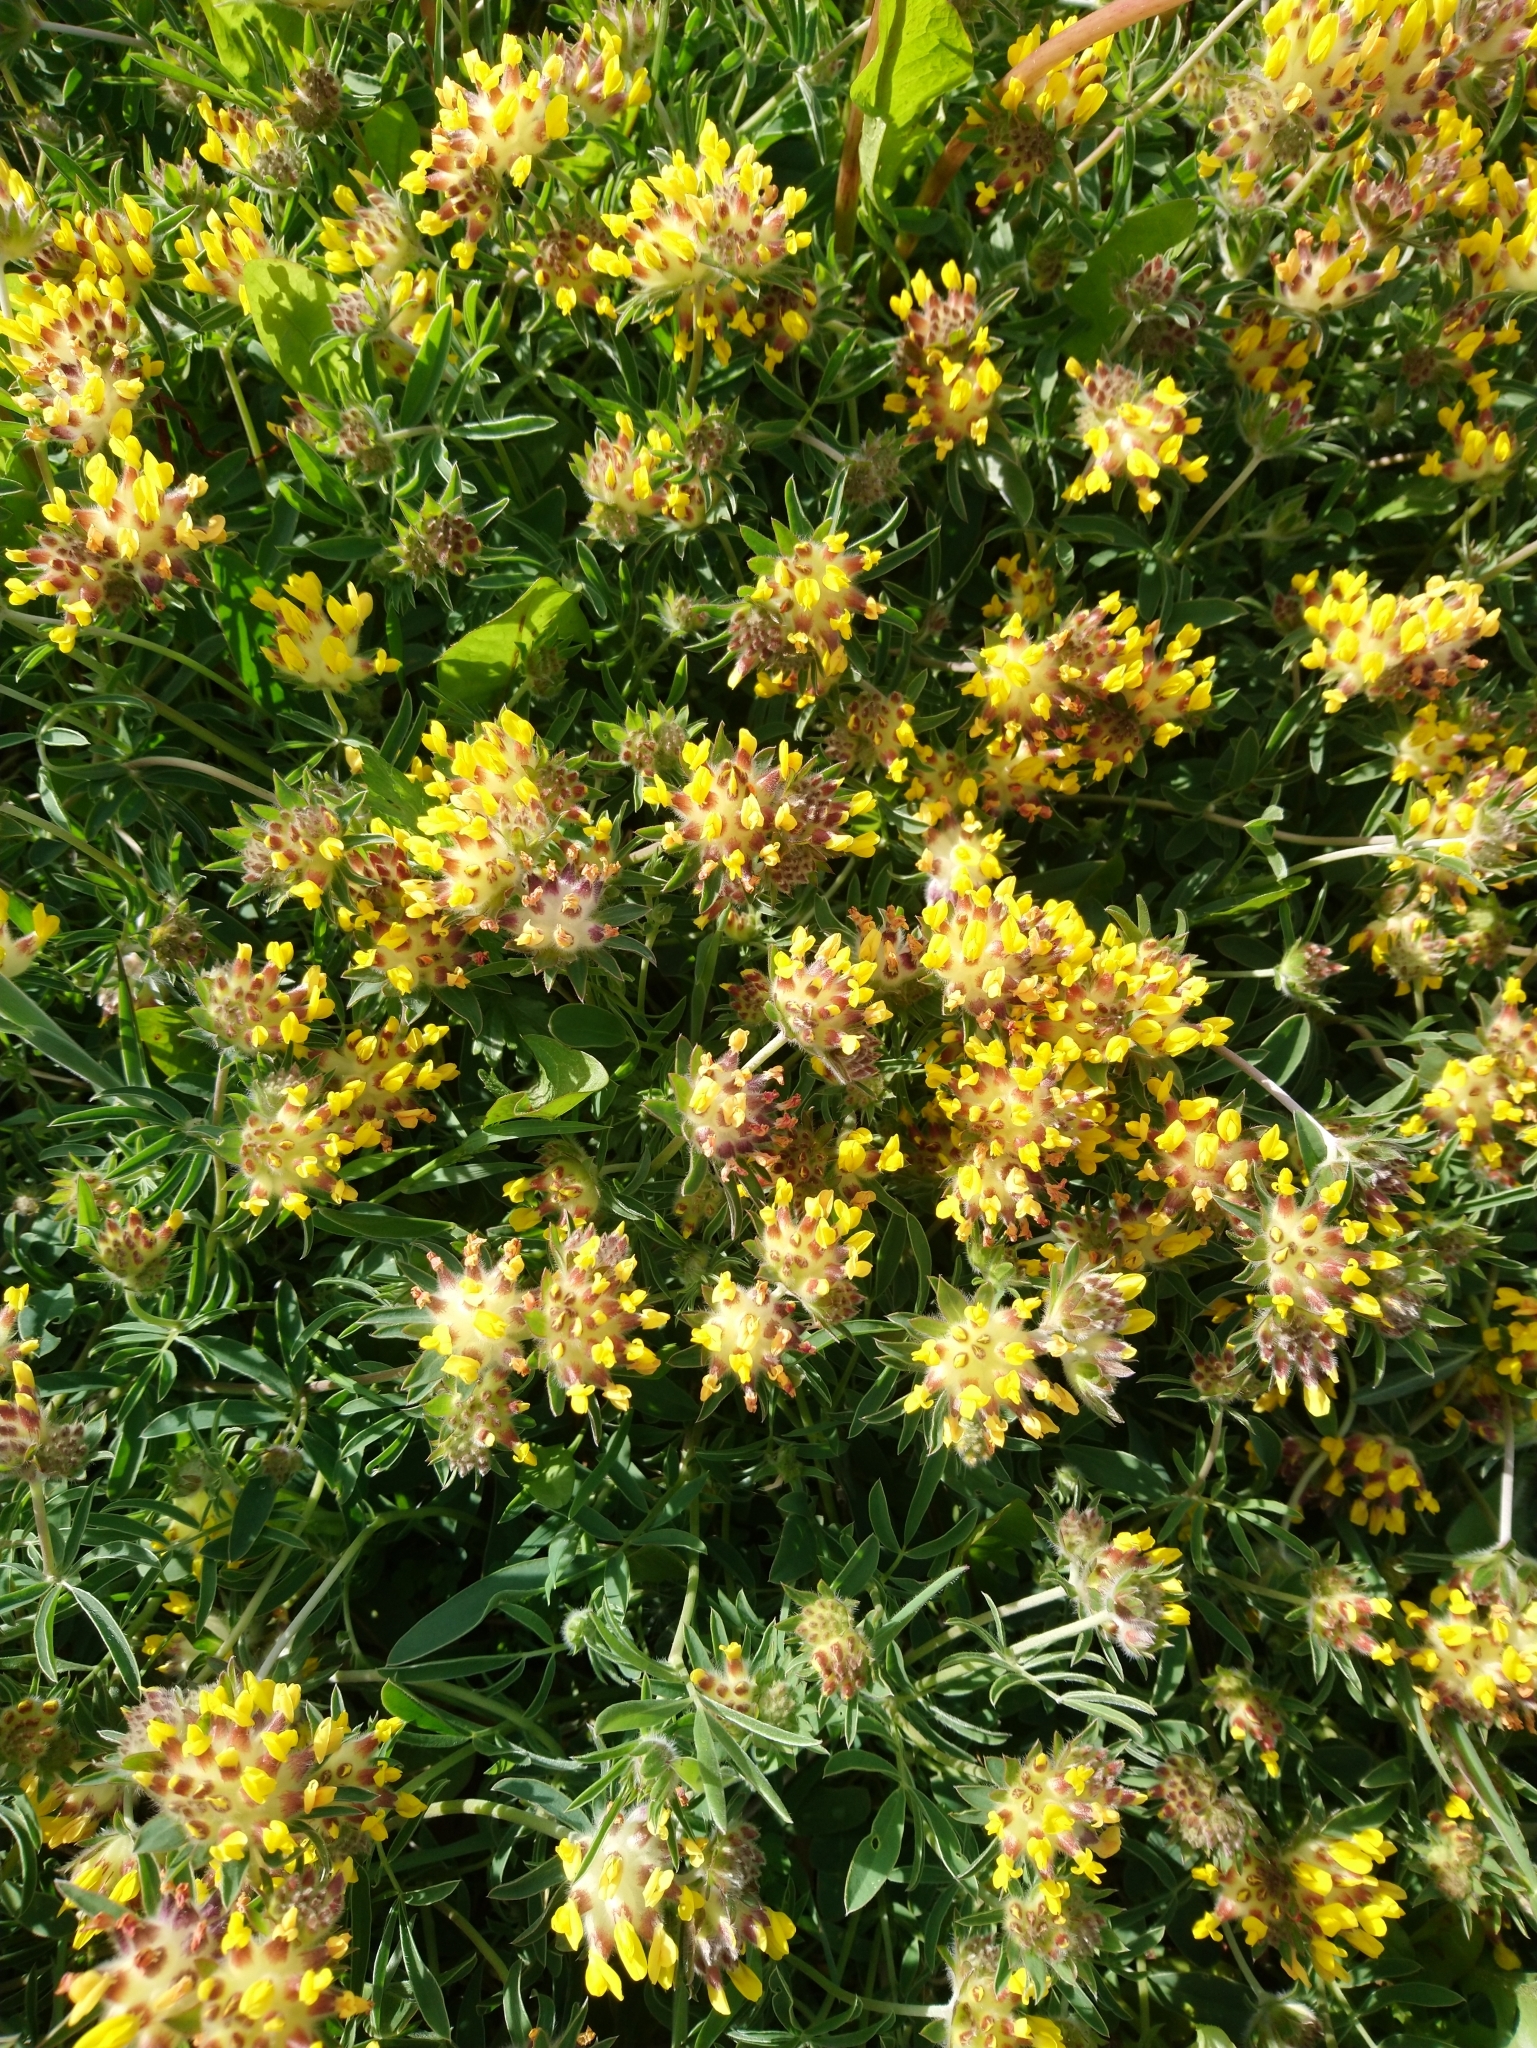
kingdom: Plantae
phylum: Tracheophyta
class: Magnoliopsida
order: Fabales
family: Fabaceae
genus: Anthyllis
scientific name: Anthyllis vulneraria
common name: Kidney vetch
